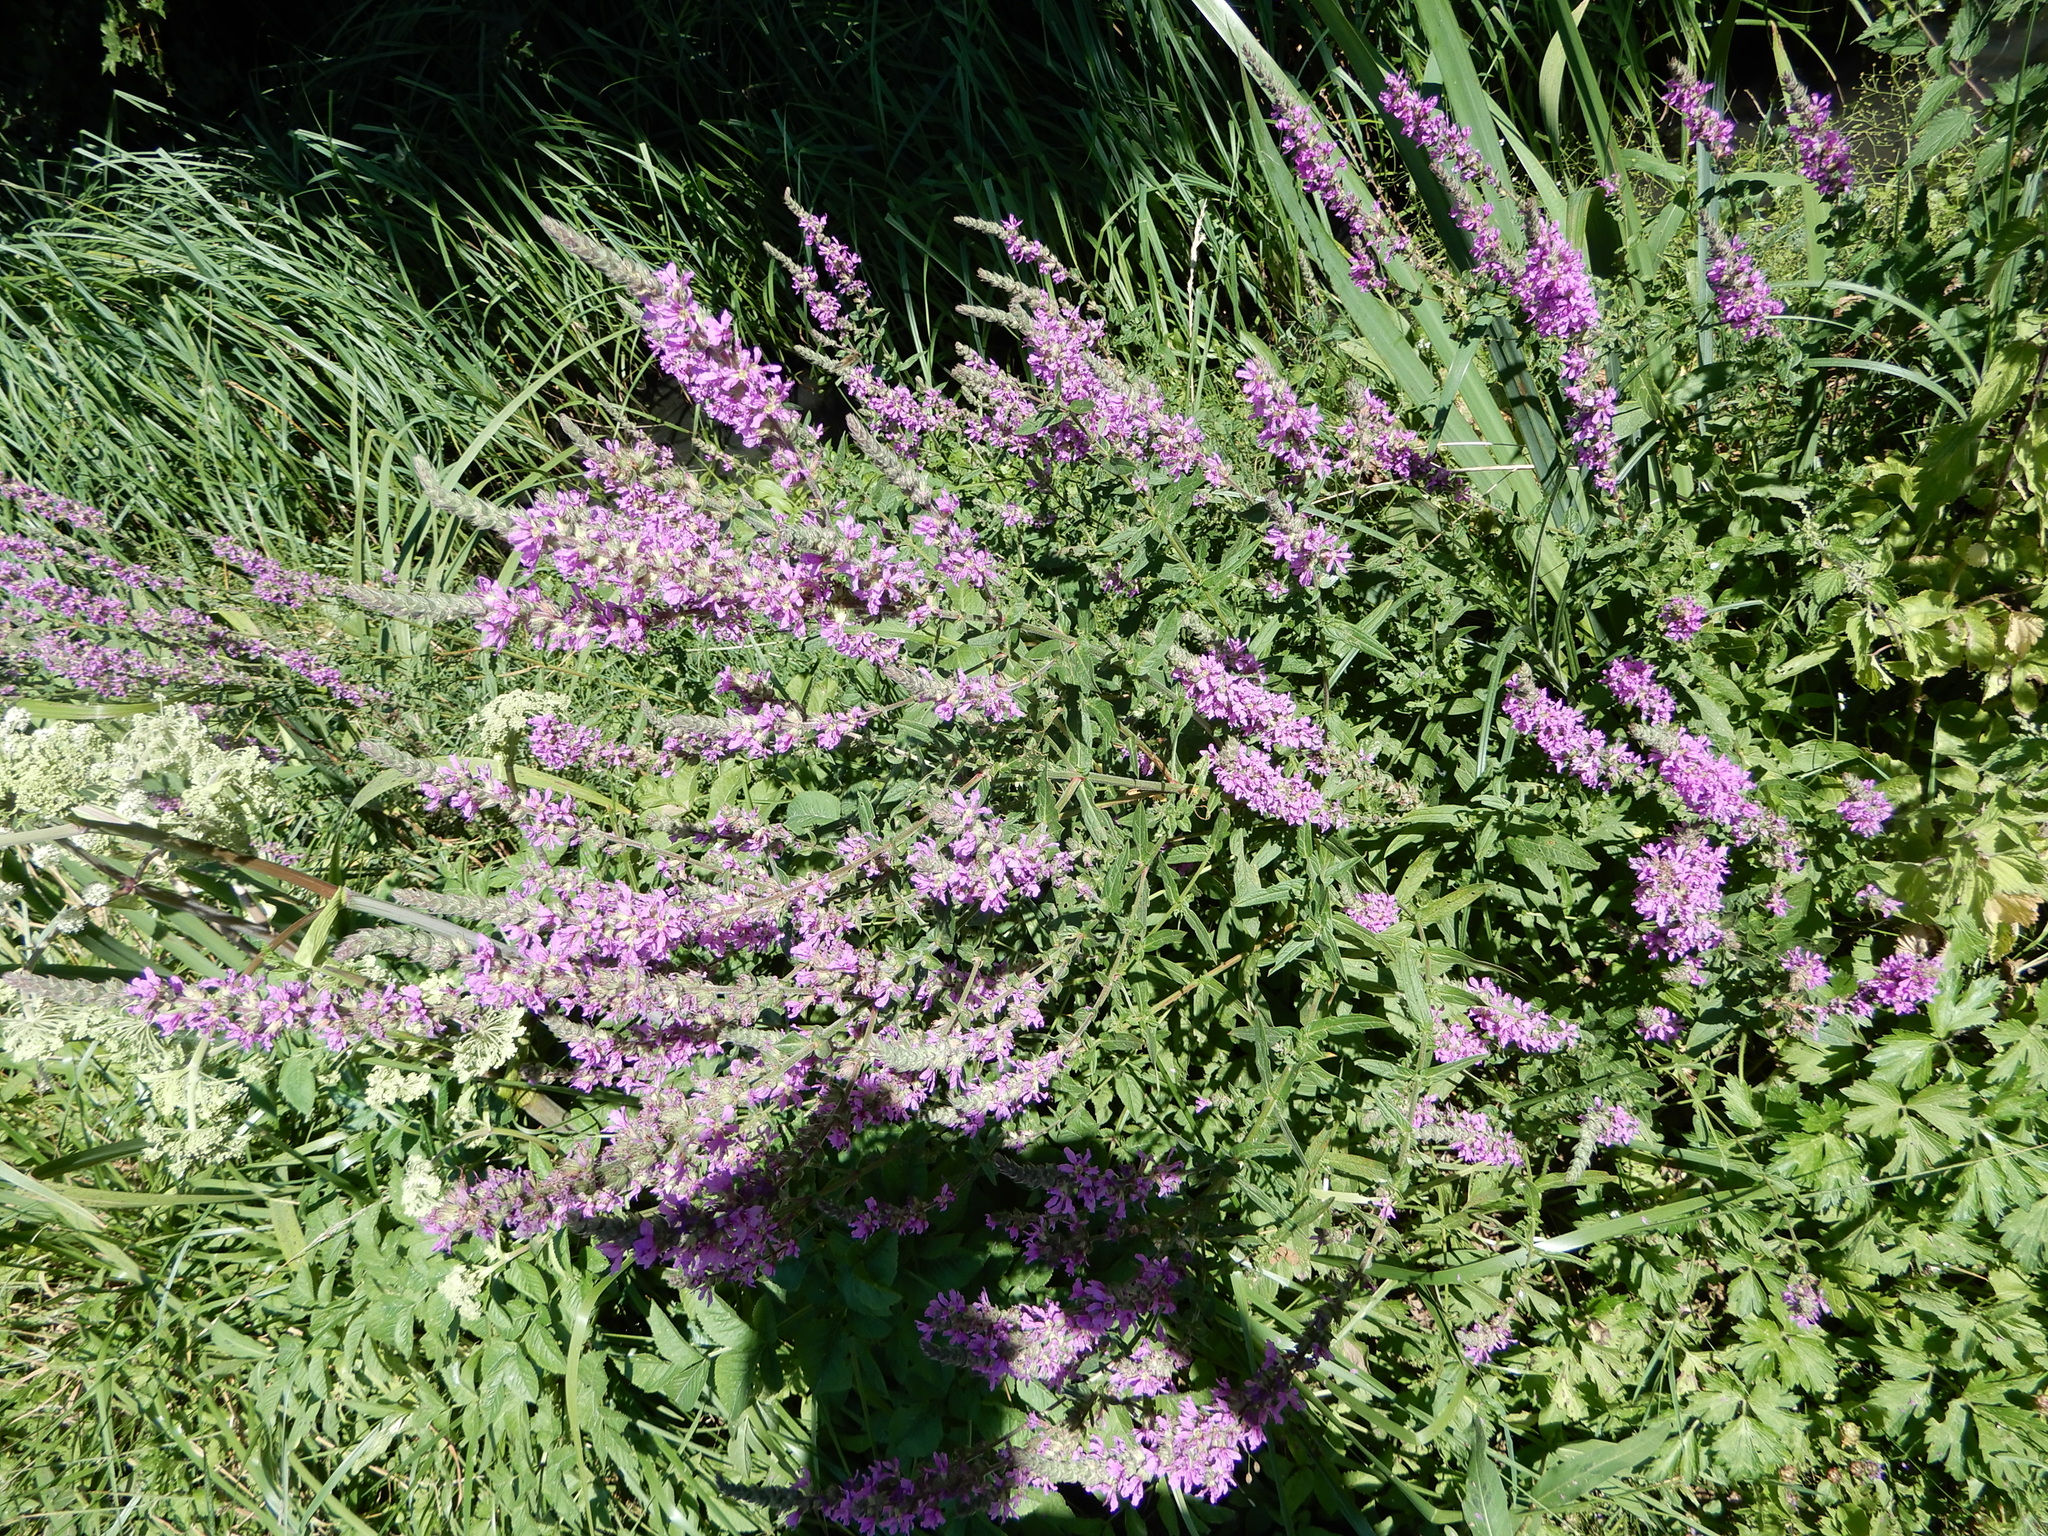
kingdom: Plantae
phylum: Tracheophyta
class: Magnoliopsida
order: Myrtales
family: Lythraceae
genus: Lythrum
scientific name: Lythrum salicaria
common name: Purple loosestrife
